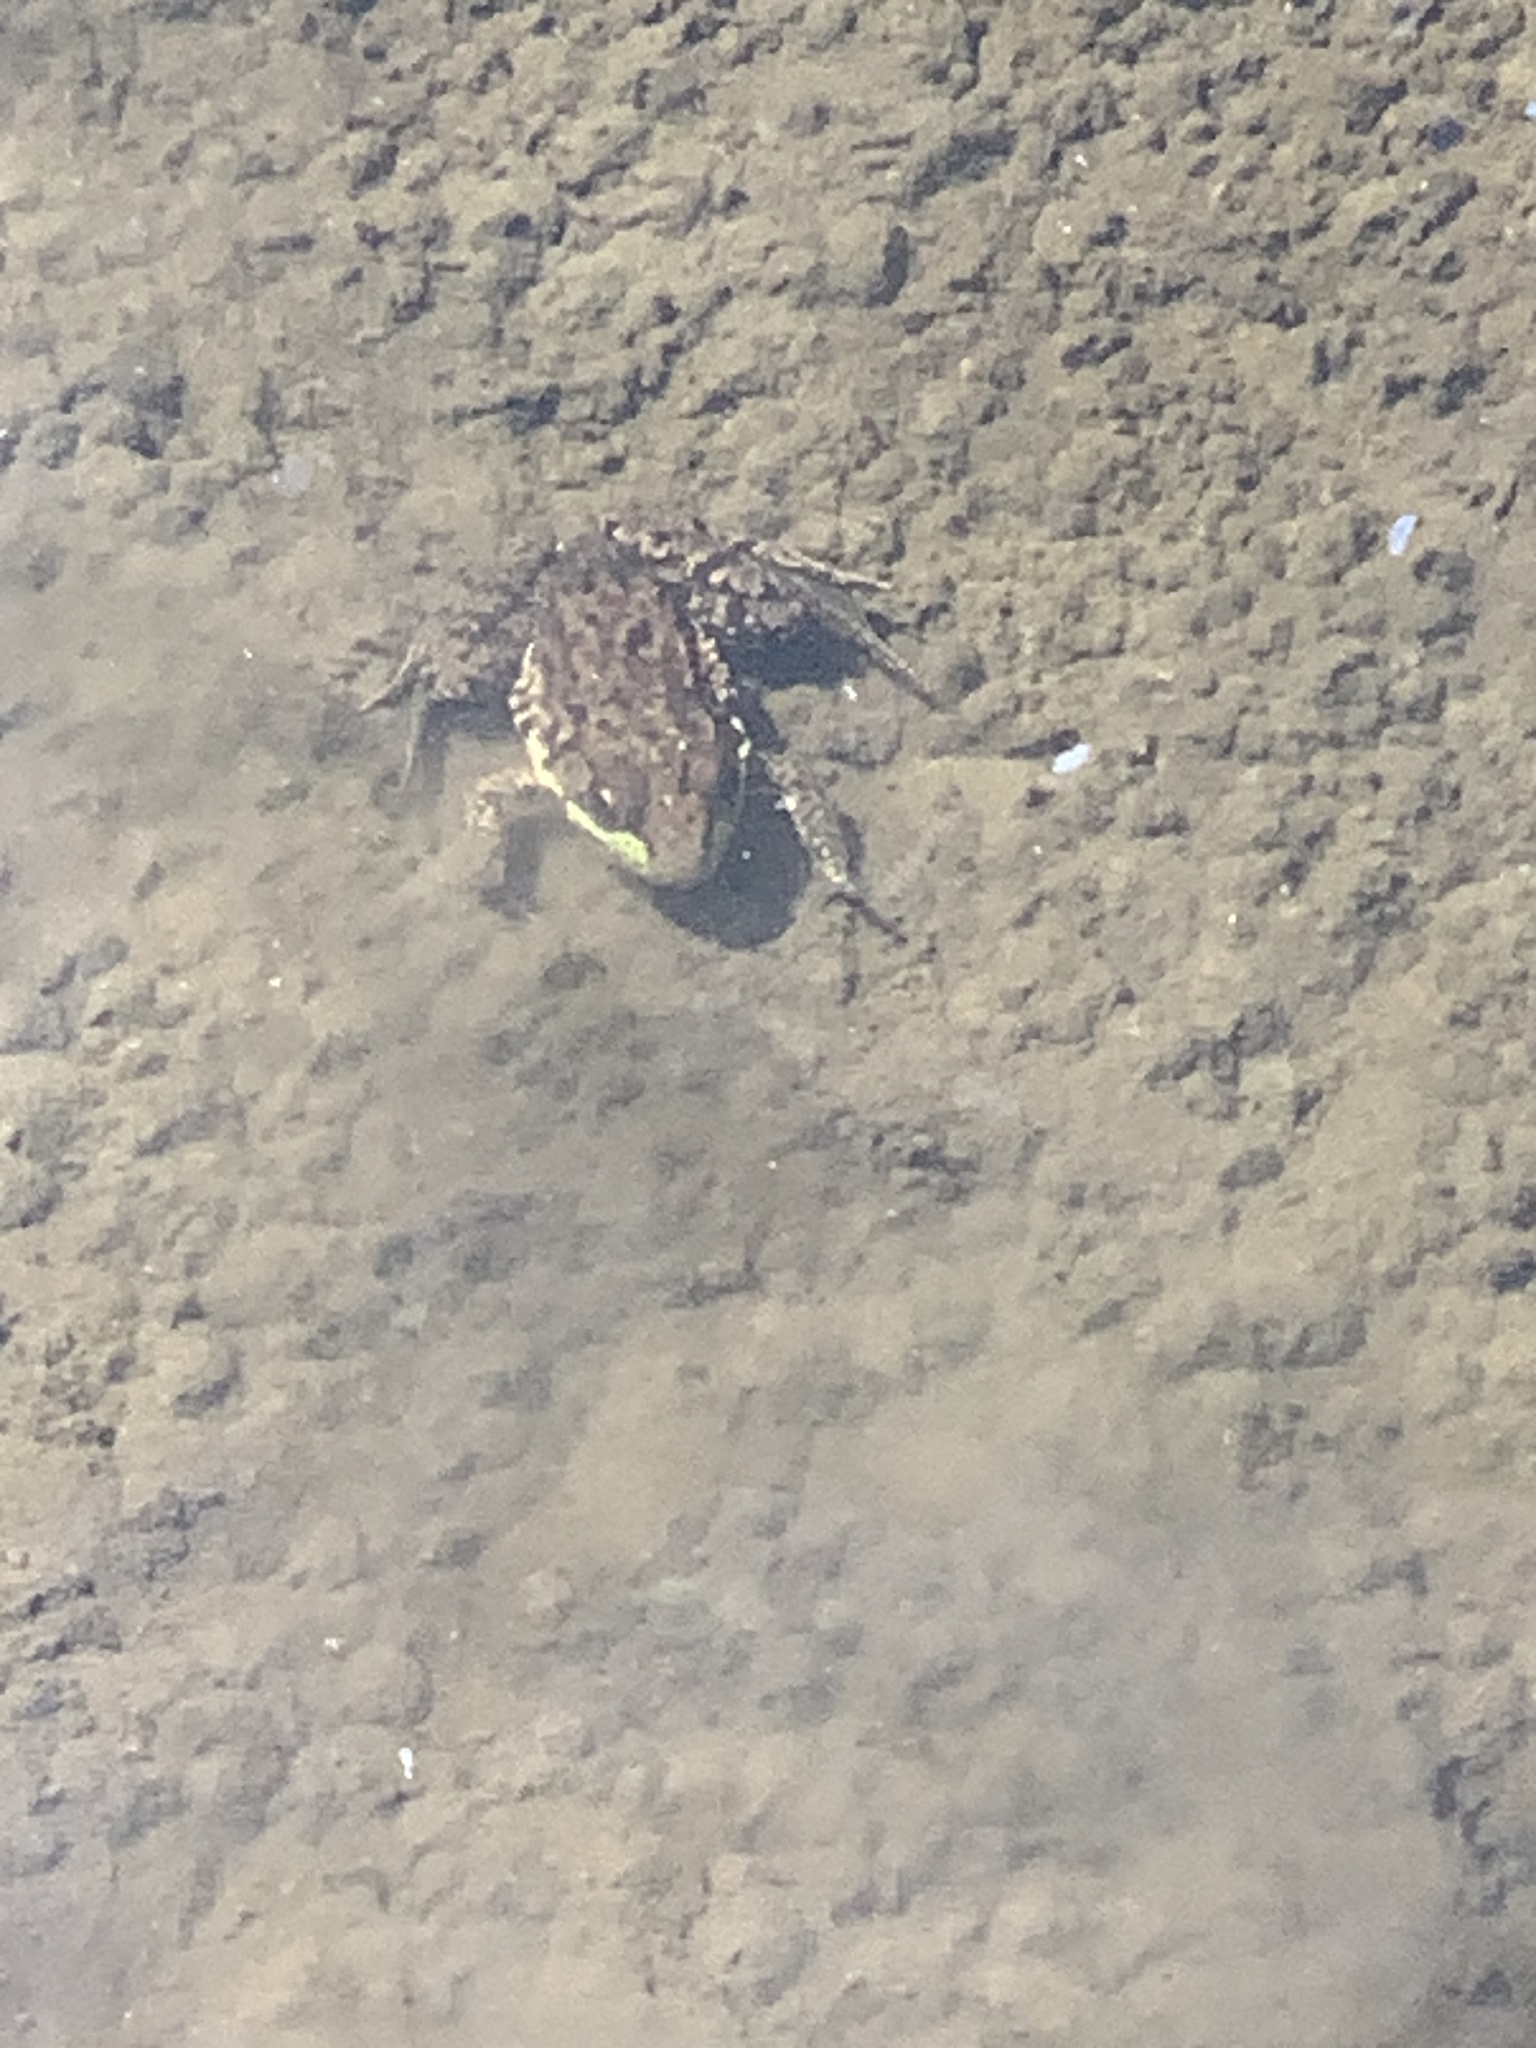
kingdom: Animalia
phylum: Chordata
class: Amphibia
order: Anura
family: Ranidae
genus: Lithobates
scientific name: Lithobates clamitans
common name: Green frog
